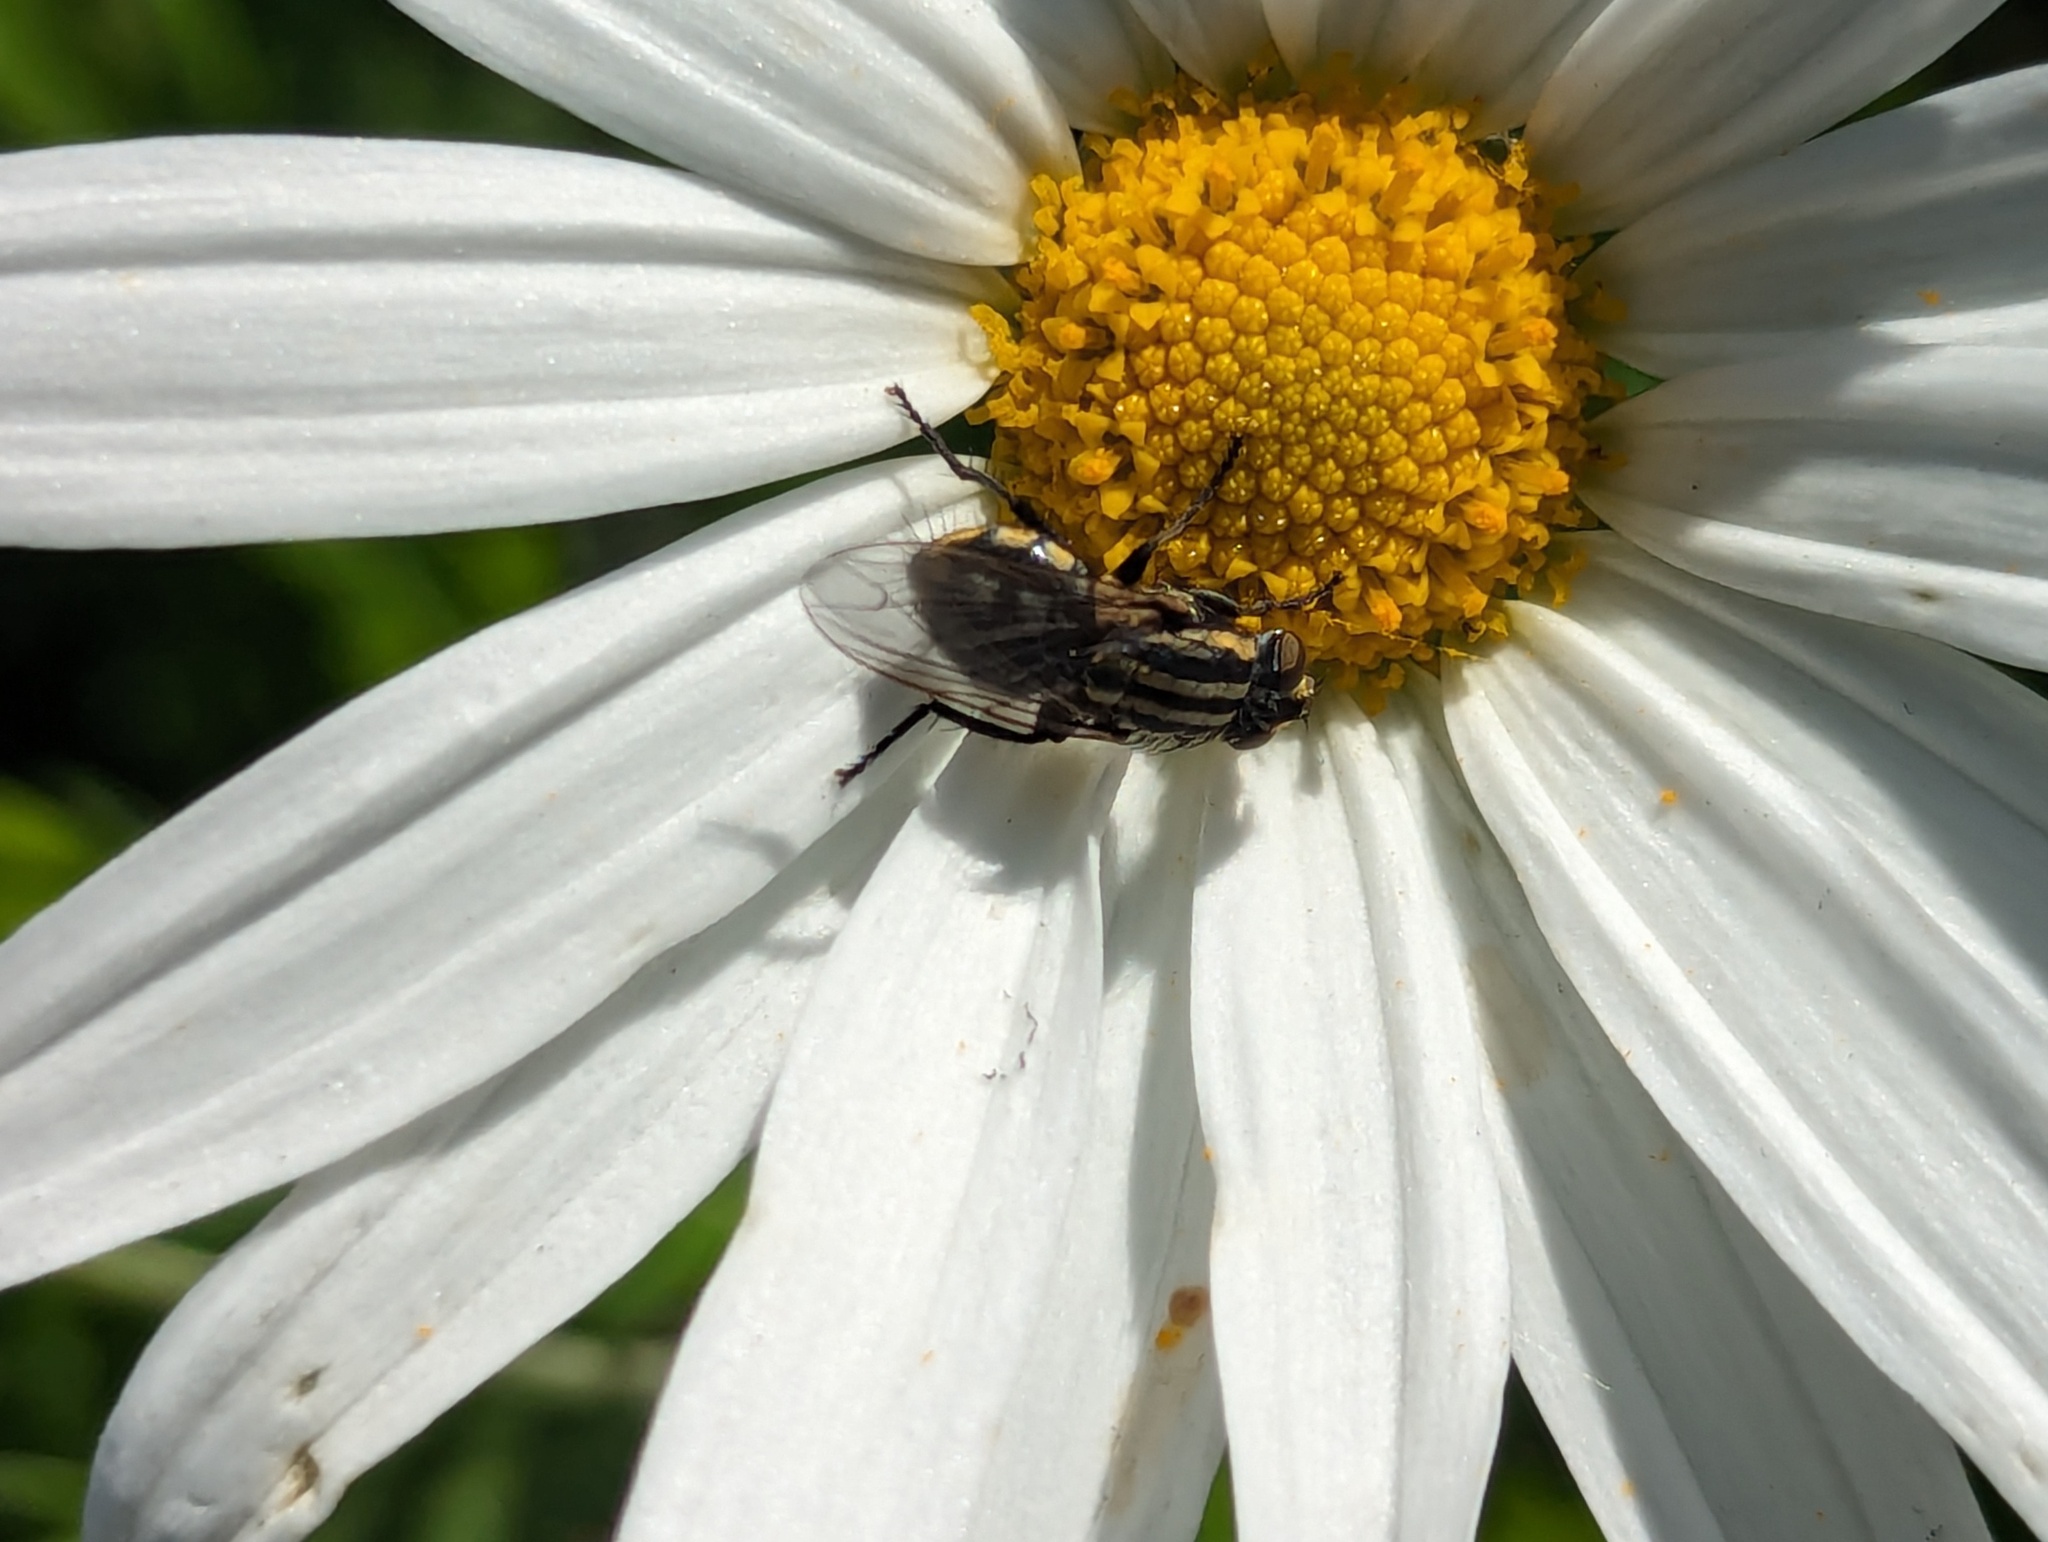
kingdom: Animalia
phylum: Arthropoda
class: Insecta
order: Diptera
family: Sarcophagidae
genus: Oxysarcodexia
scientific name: Oxysarcodexia varia
